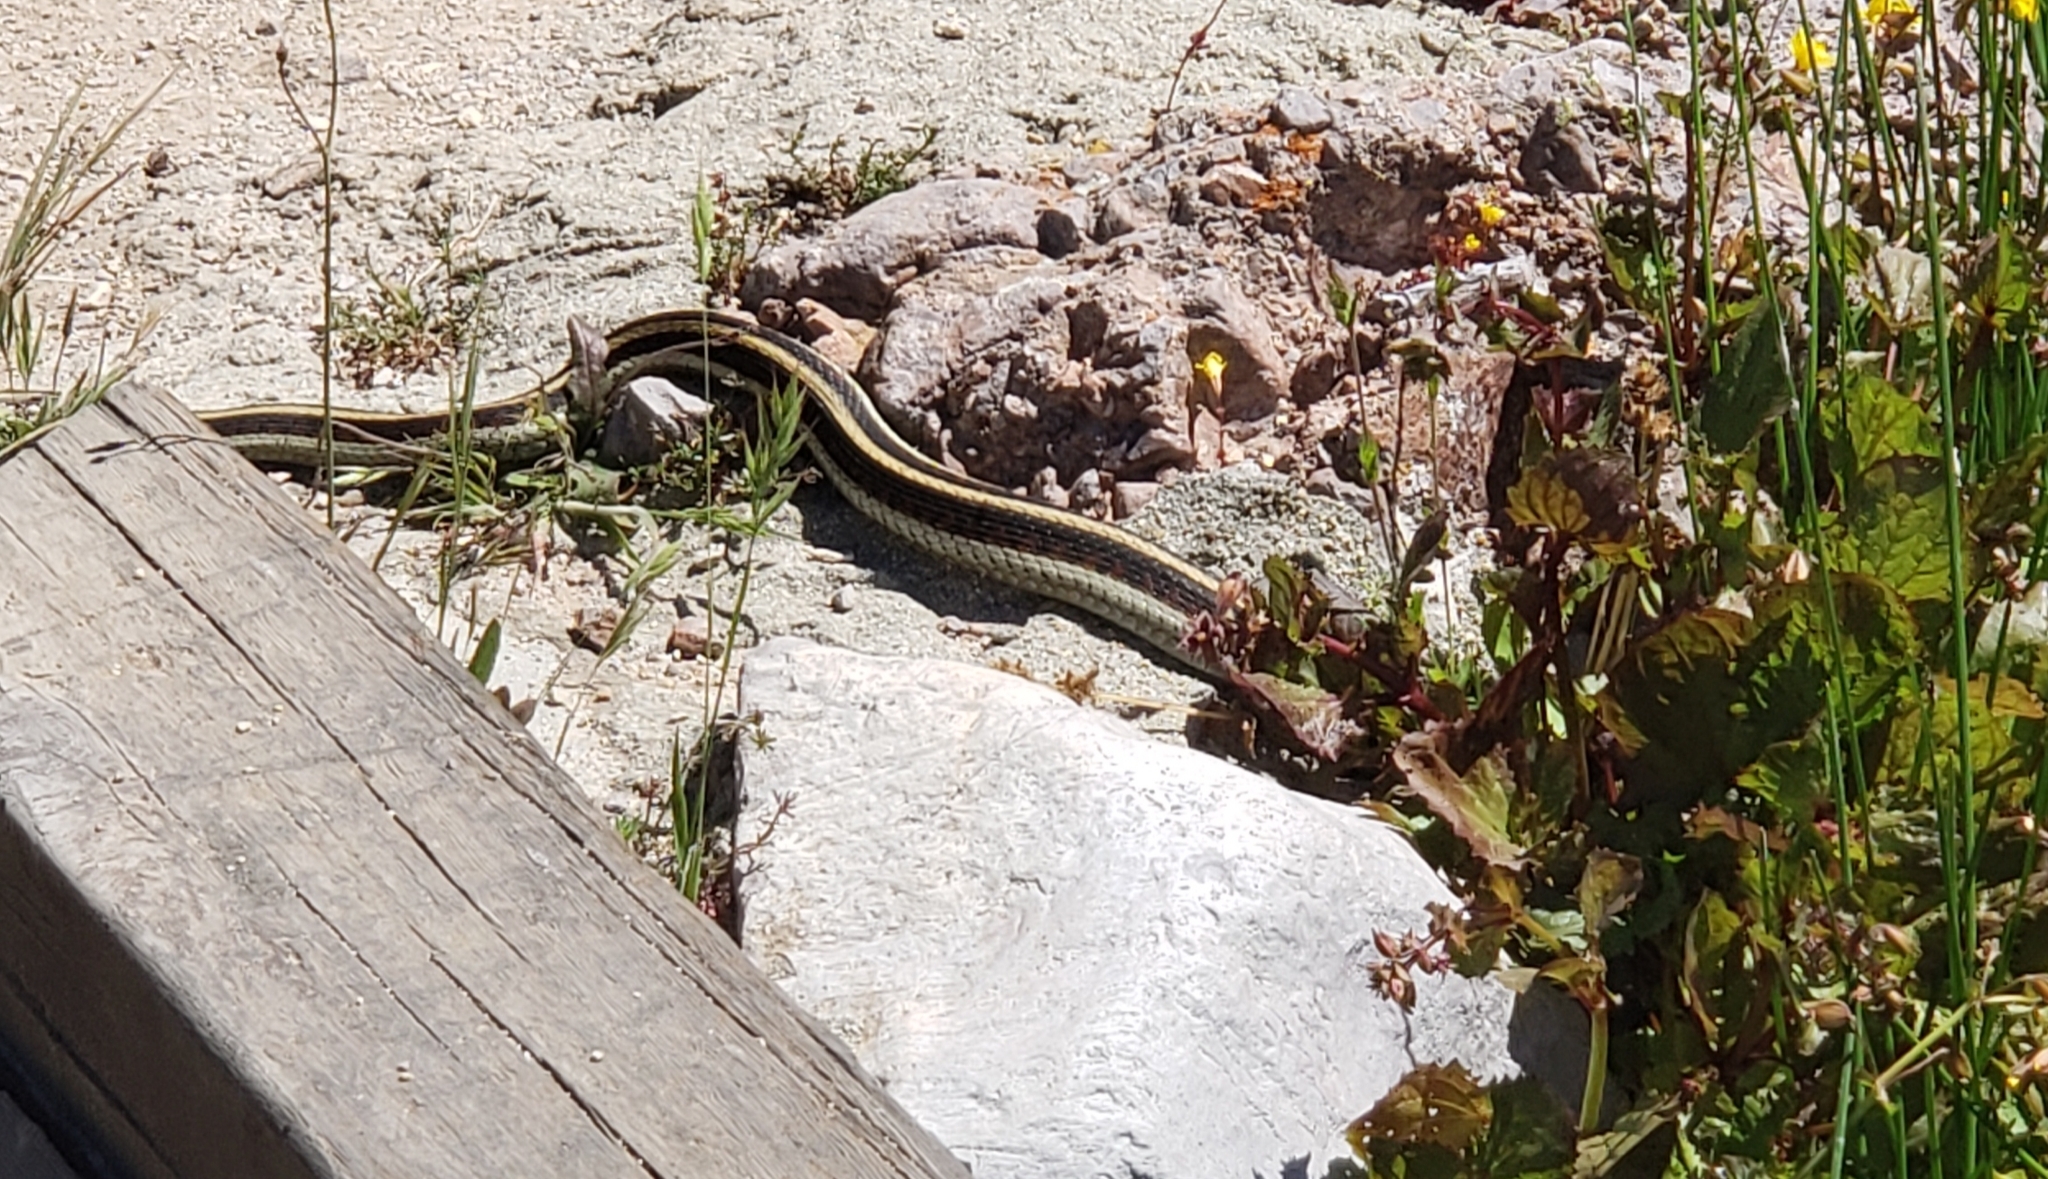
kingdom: Animalia
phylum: Chordata
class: Squamata
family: Colubridae
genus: Thamnophis
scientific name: Thamnophis sirtalis
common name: Common garter snake
